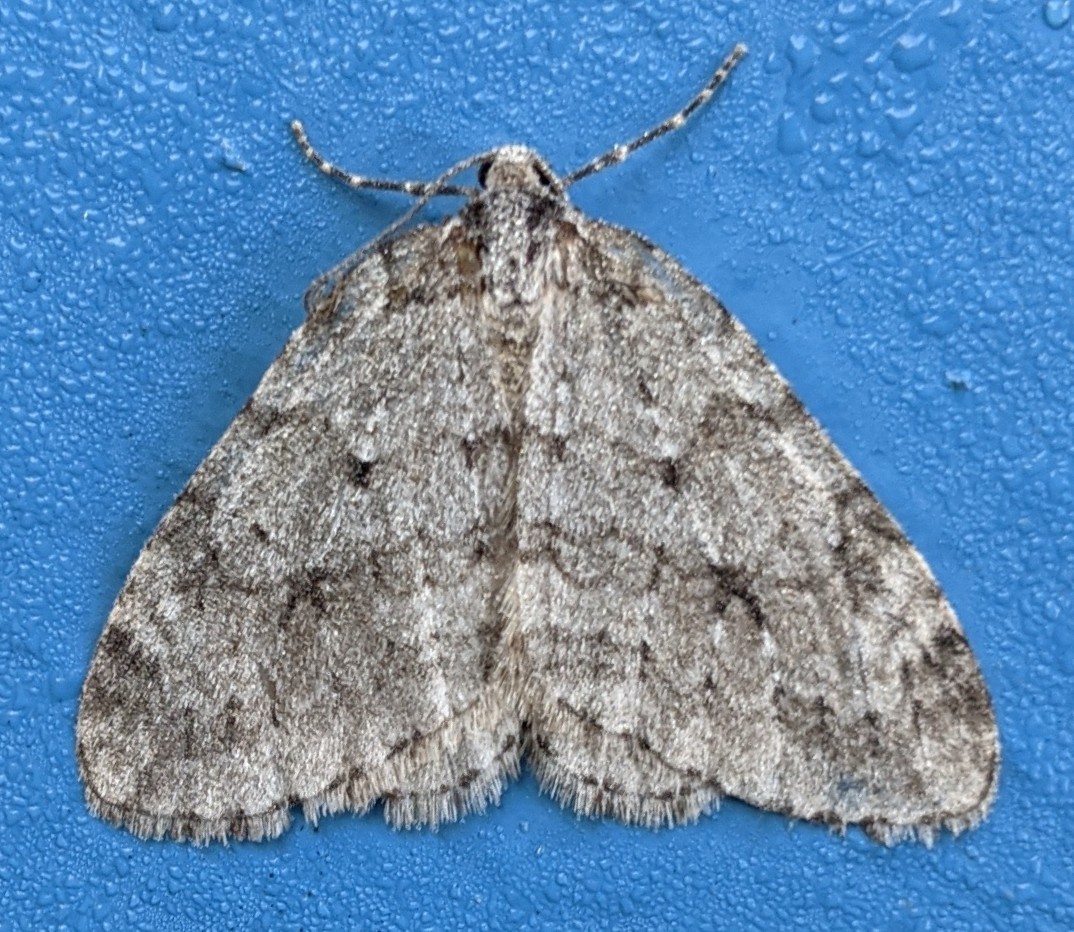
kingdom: Animalia
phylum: Arthropoda
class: Insecta
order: Lepidoptera
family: Geometridae
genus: Epirrita
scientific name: Epirrita autumnata
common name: Autumnal moth
